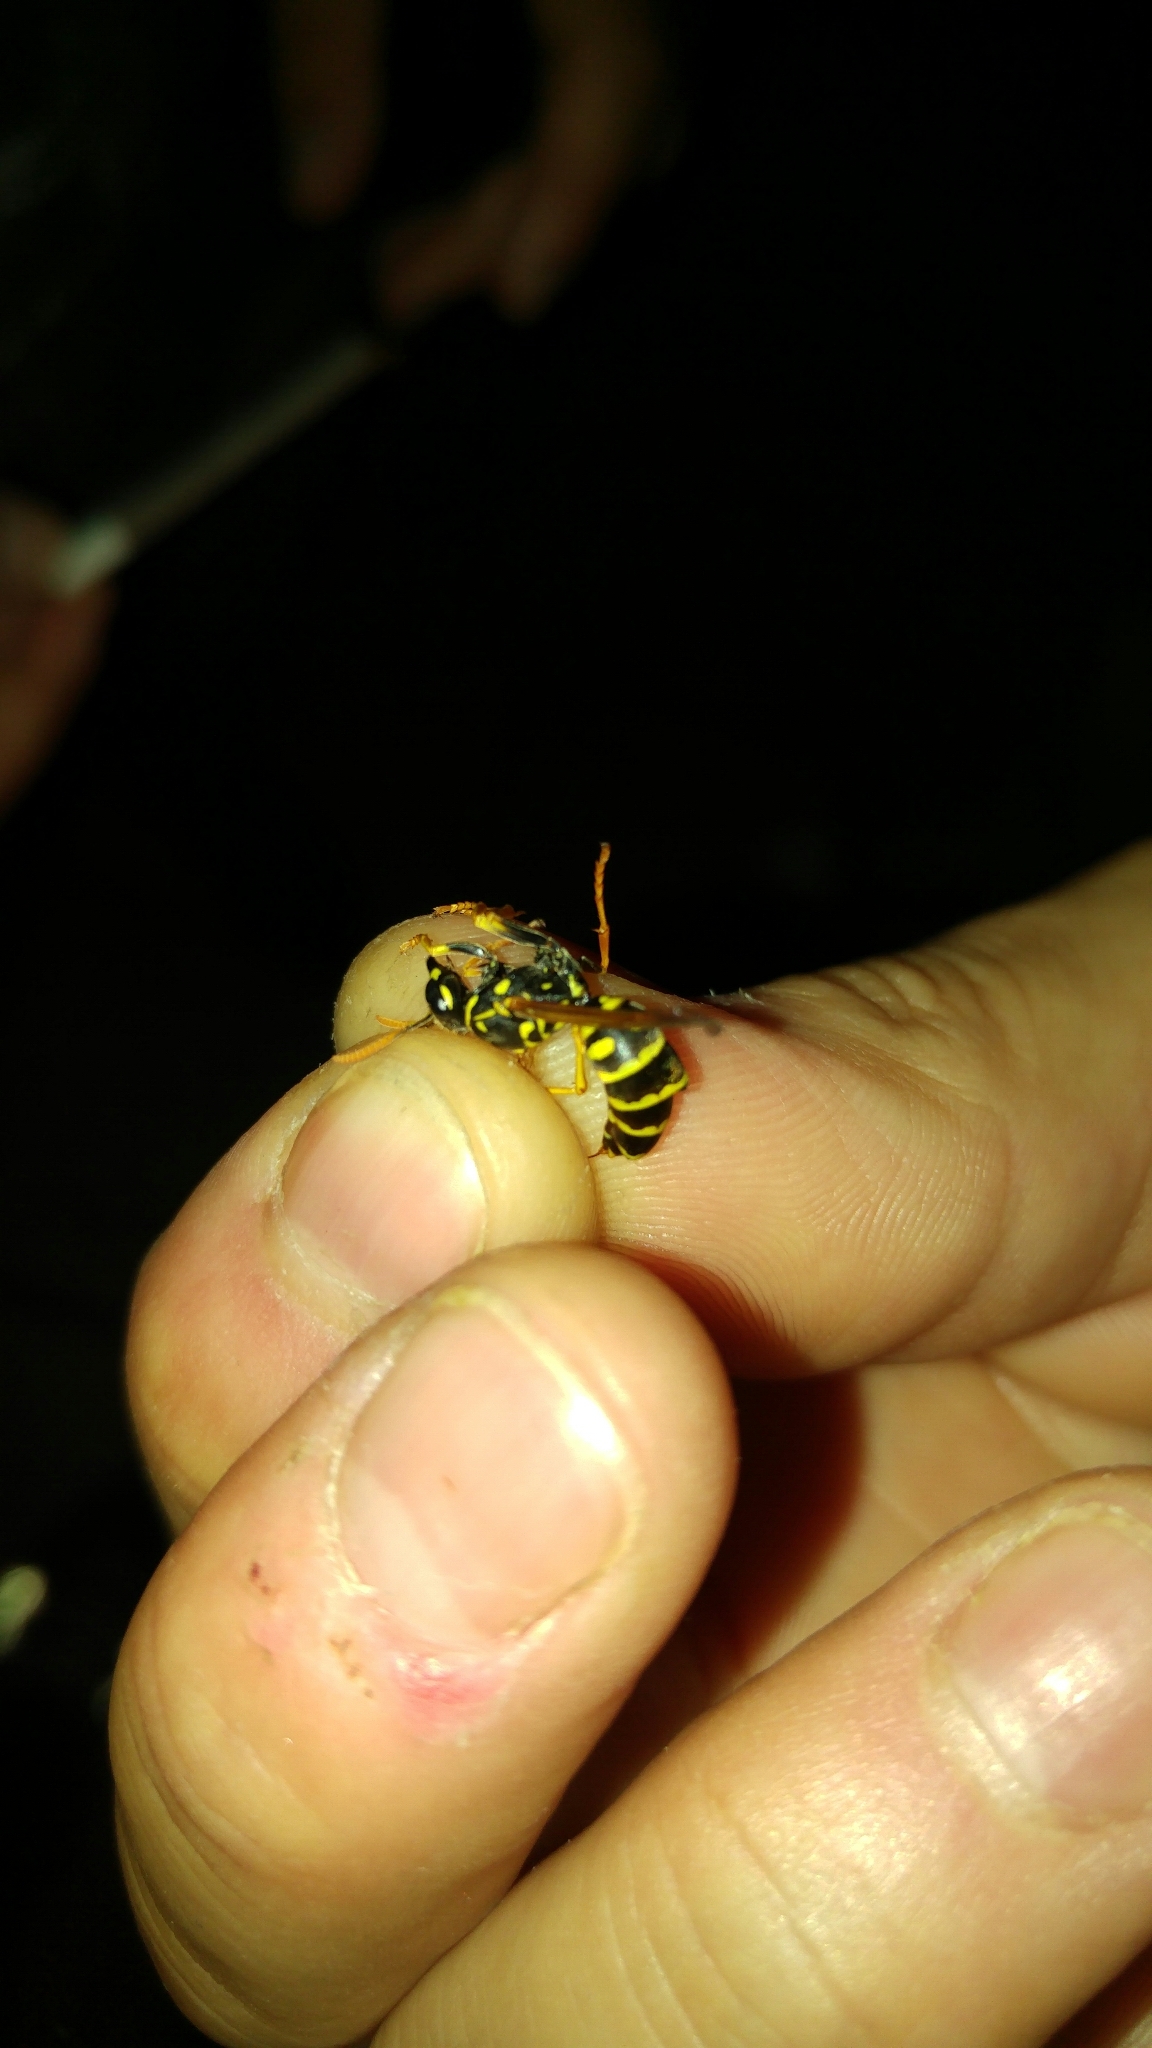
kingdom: Animalia
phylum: Arthropoda
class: Insecta
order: Strepsiptera
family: Xenidae
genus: Xenos
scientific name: Xenos vesparum
